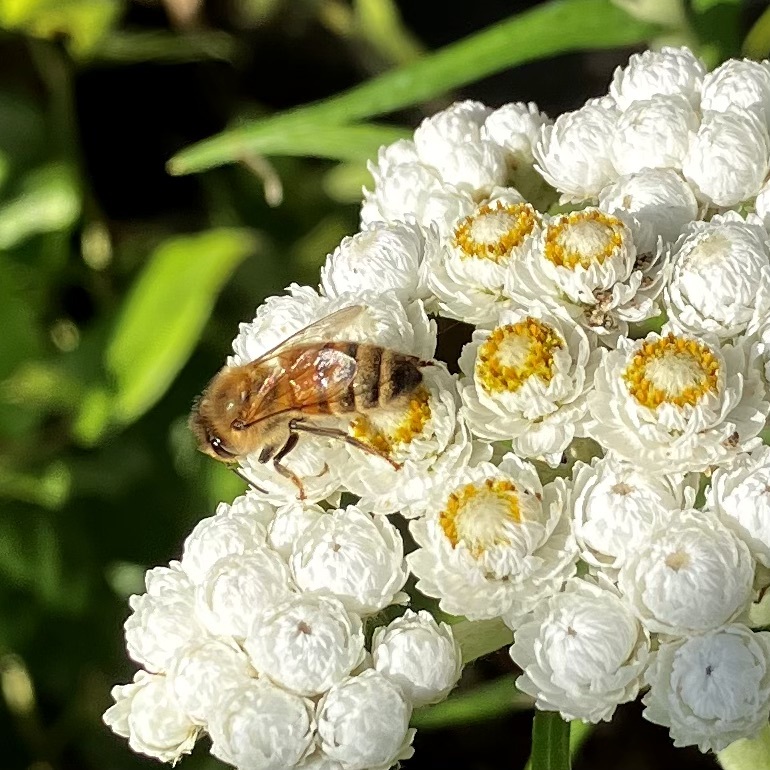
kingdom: Animalia
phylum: Arthropoda
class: Insecta
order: Hymenoptera
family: Apidae
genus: Apis
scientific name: Apis mellifera
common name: Honey bee
